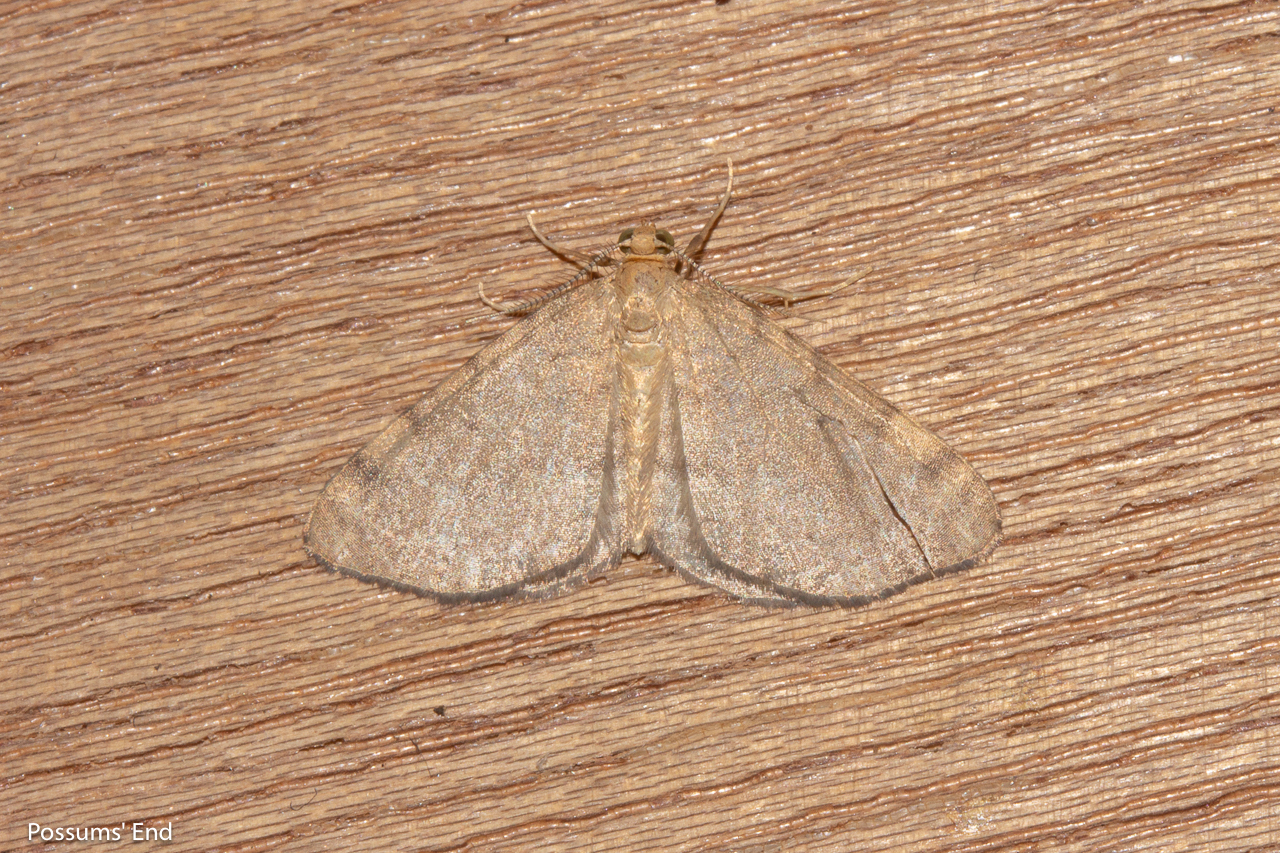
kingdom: Animalia
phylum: Arthropoda
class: Insecta
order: Lepidoptera
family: Geometridae
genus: Epiphryne
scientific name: Epiphryne undosata
